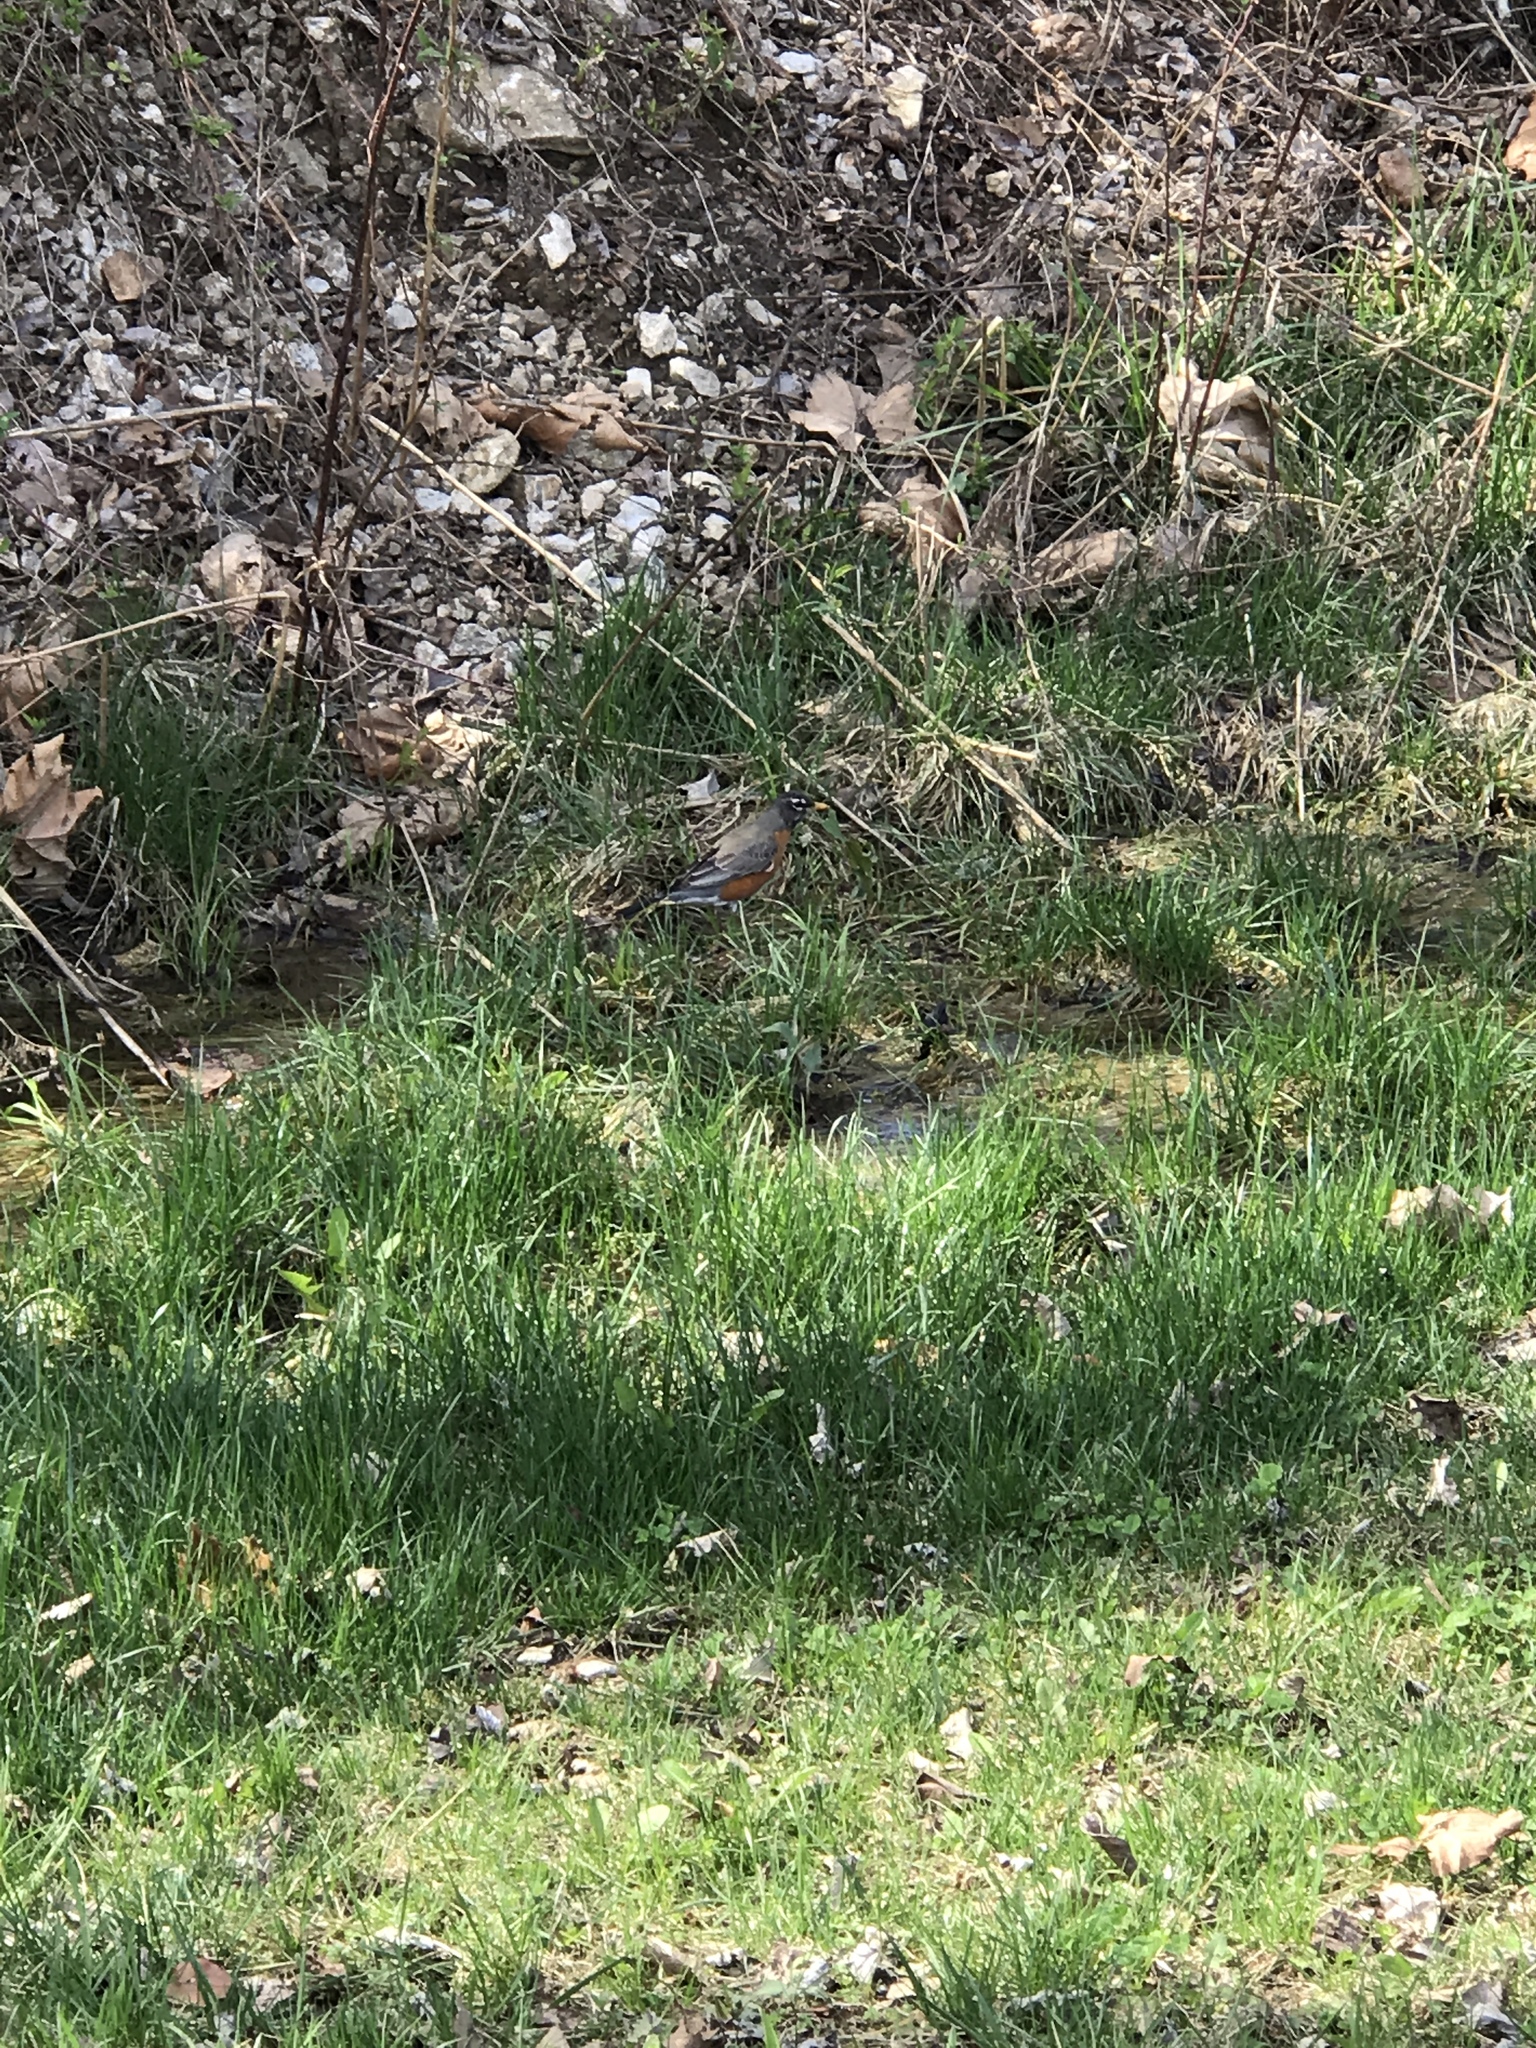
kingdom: Animalia
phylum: Chordata
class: Aves
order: Passeriformes
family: Turdidae
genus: Turdus
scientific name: Turdus migratorius
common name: American robin
